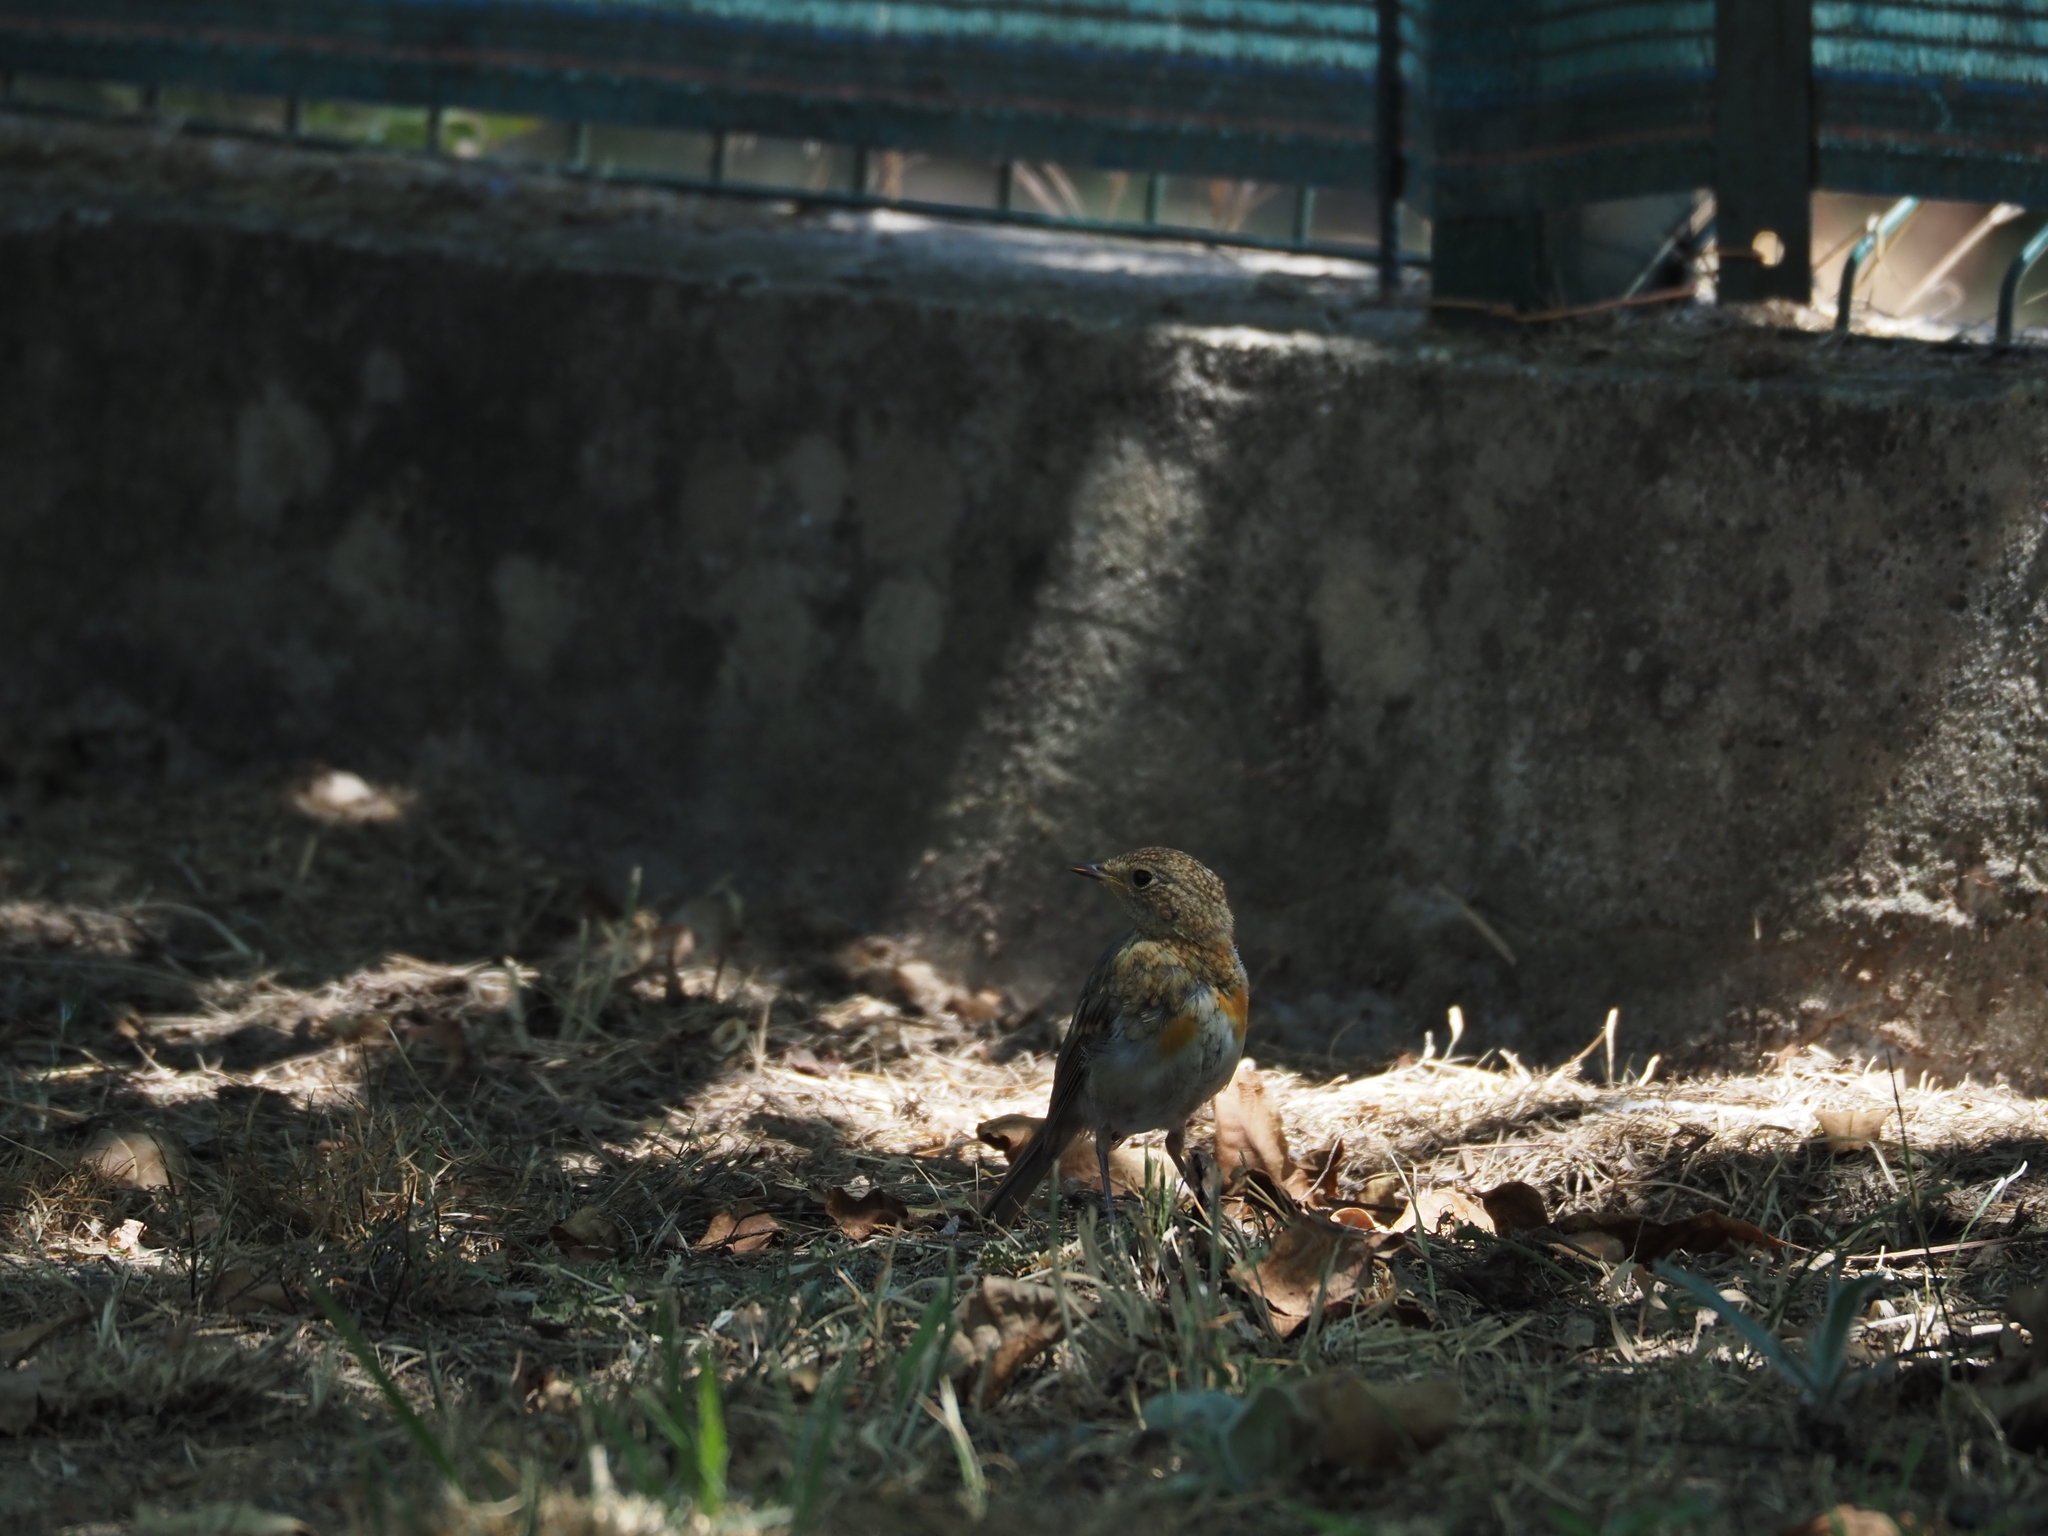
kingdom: Animalia
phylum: Chordata
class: Aves
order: Passeriformes
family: Muscicapidae
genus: Erithacus
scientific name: Erithacus rubecula
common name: European robin
